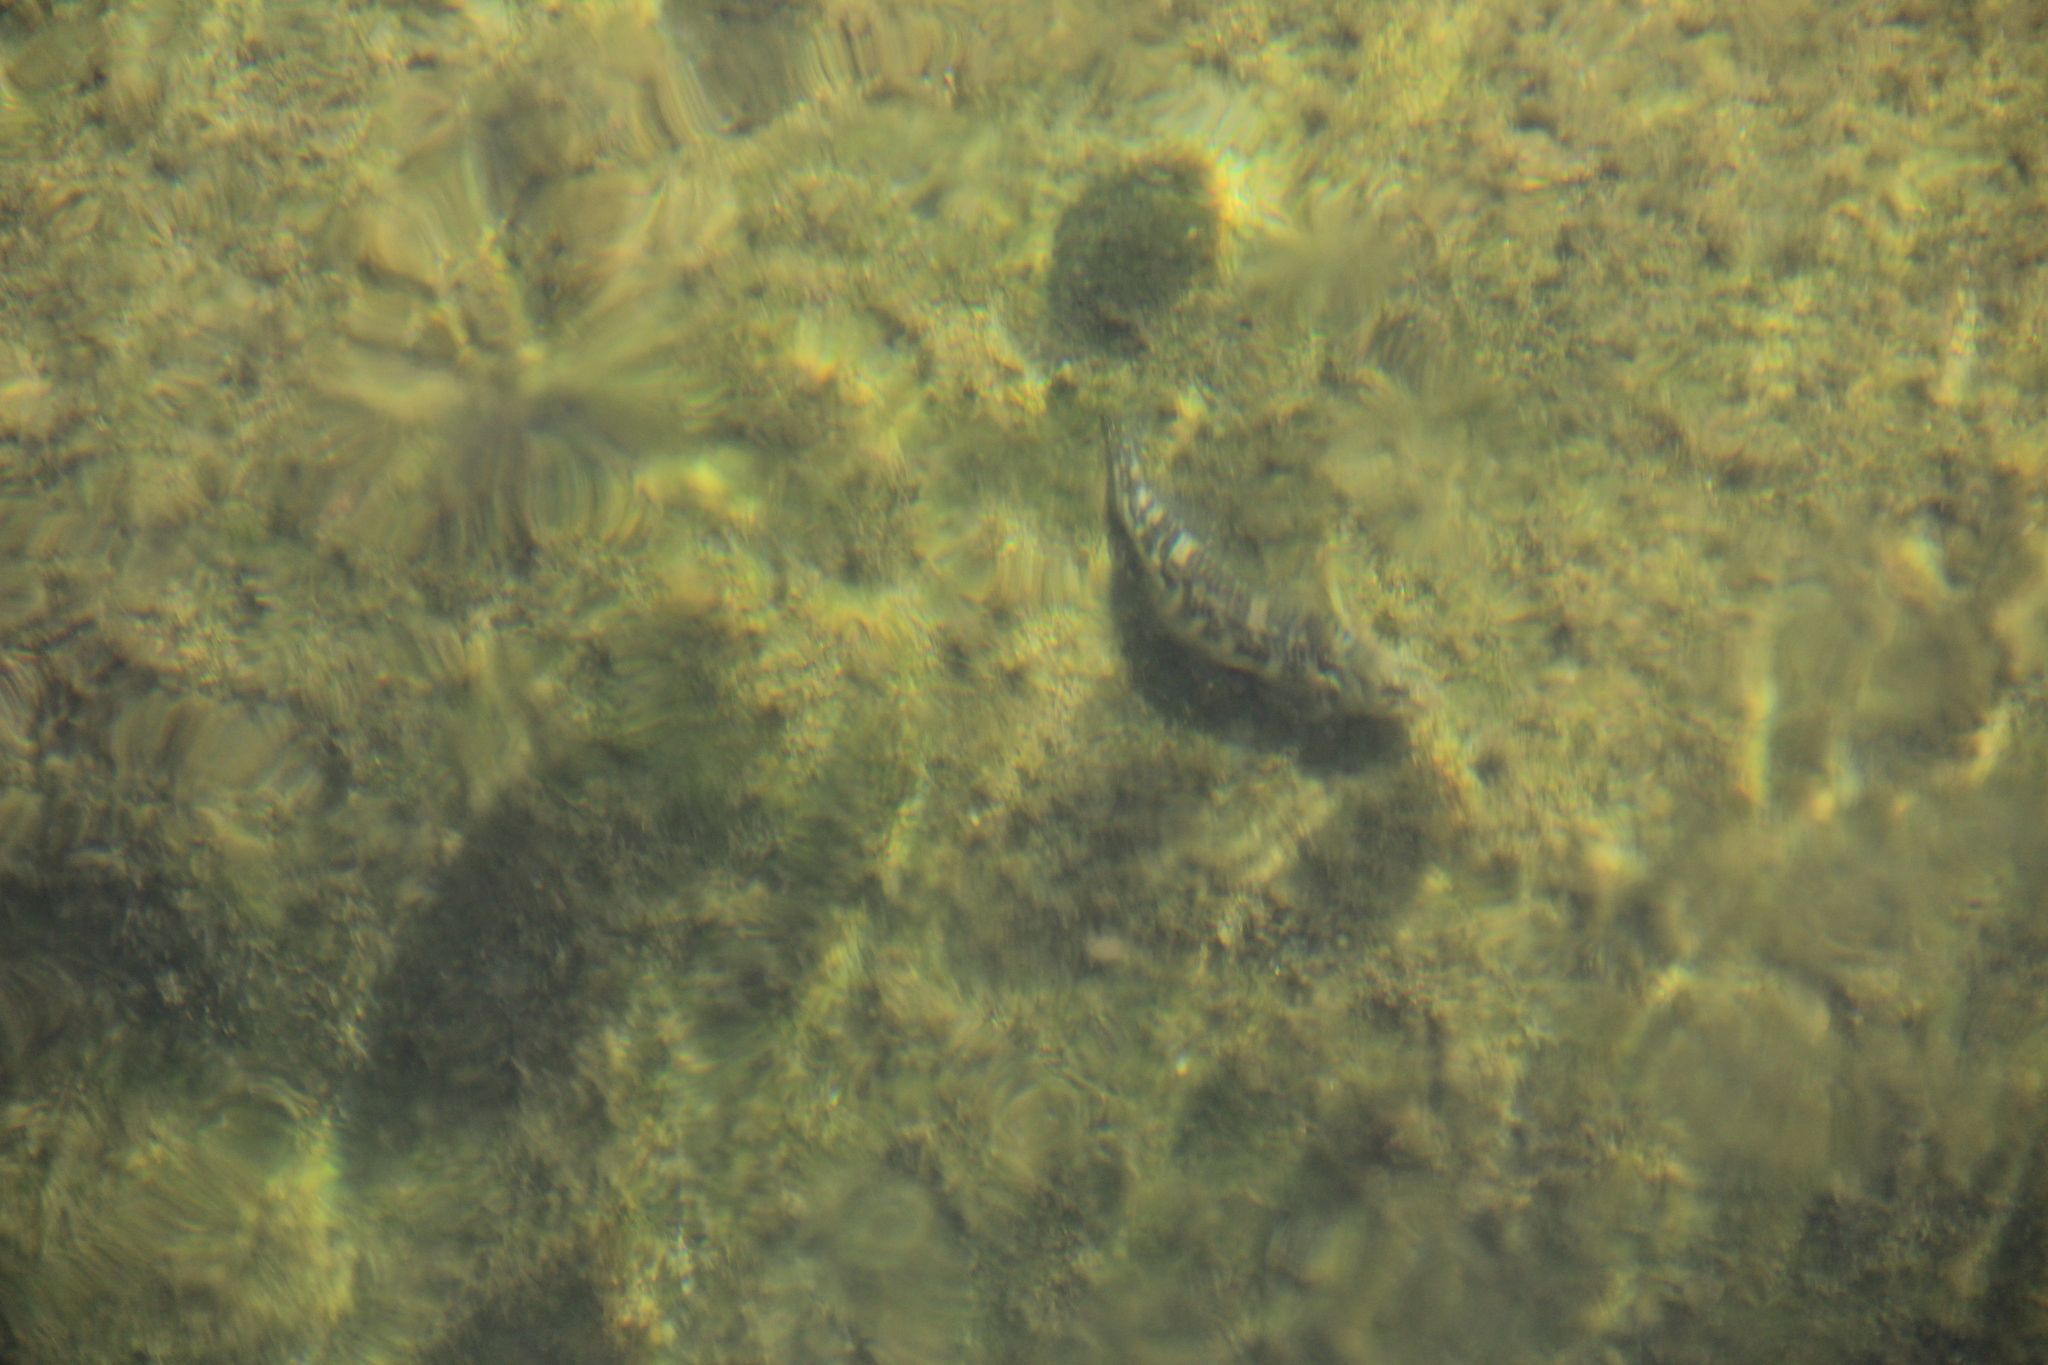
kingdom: Animalia
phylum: Chordata
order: Perciformes
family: Blenniidae
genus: Salaria
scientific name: Salaria fluviatilis
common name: Freshwater blenny
